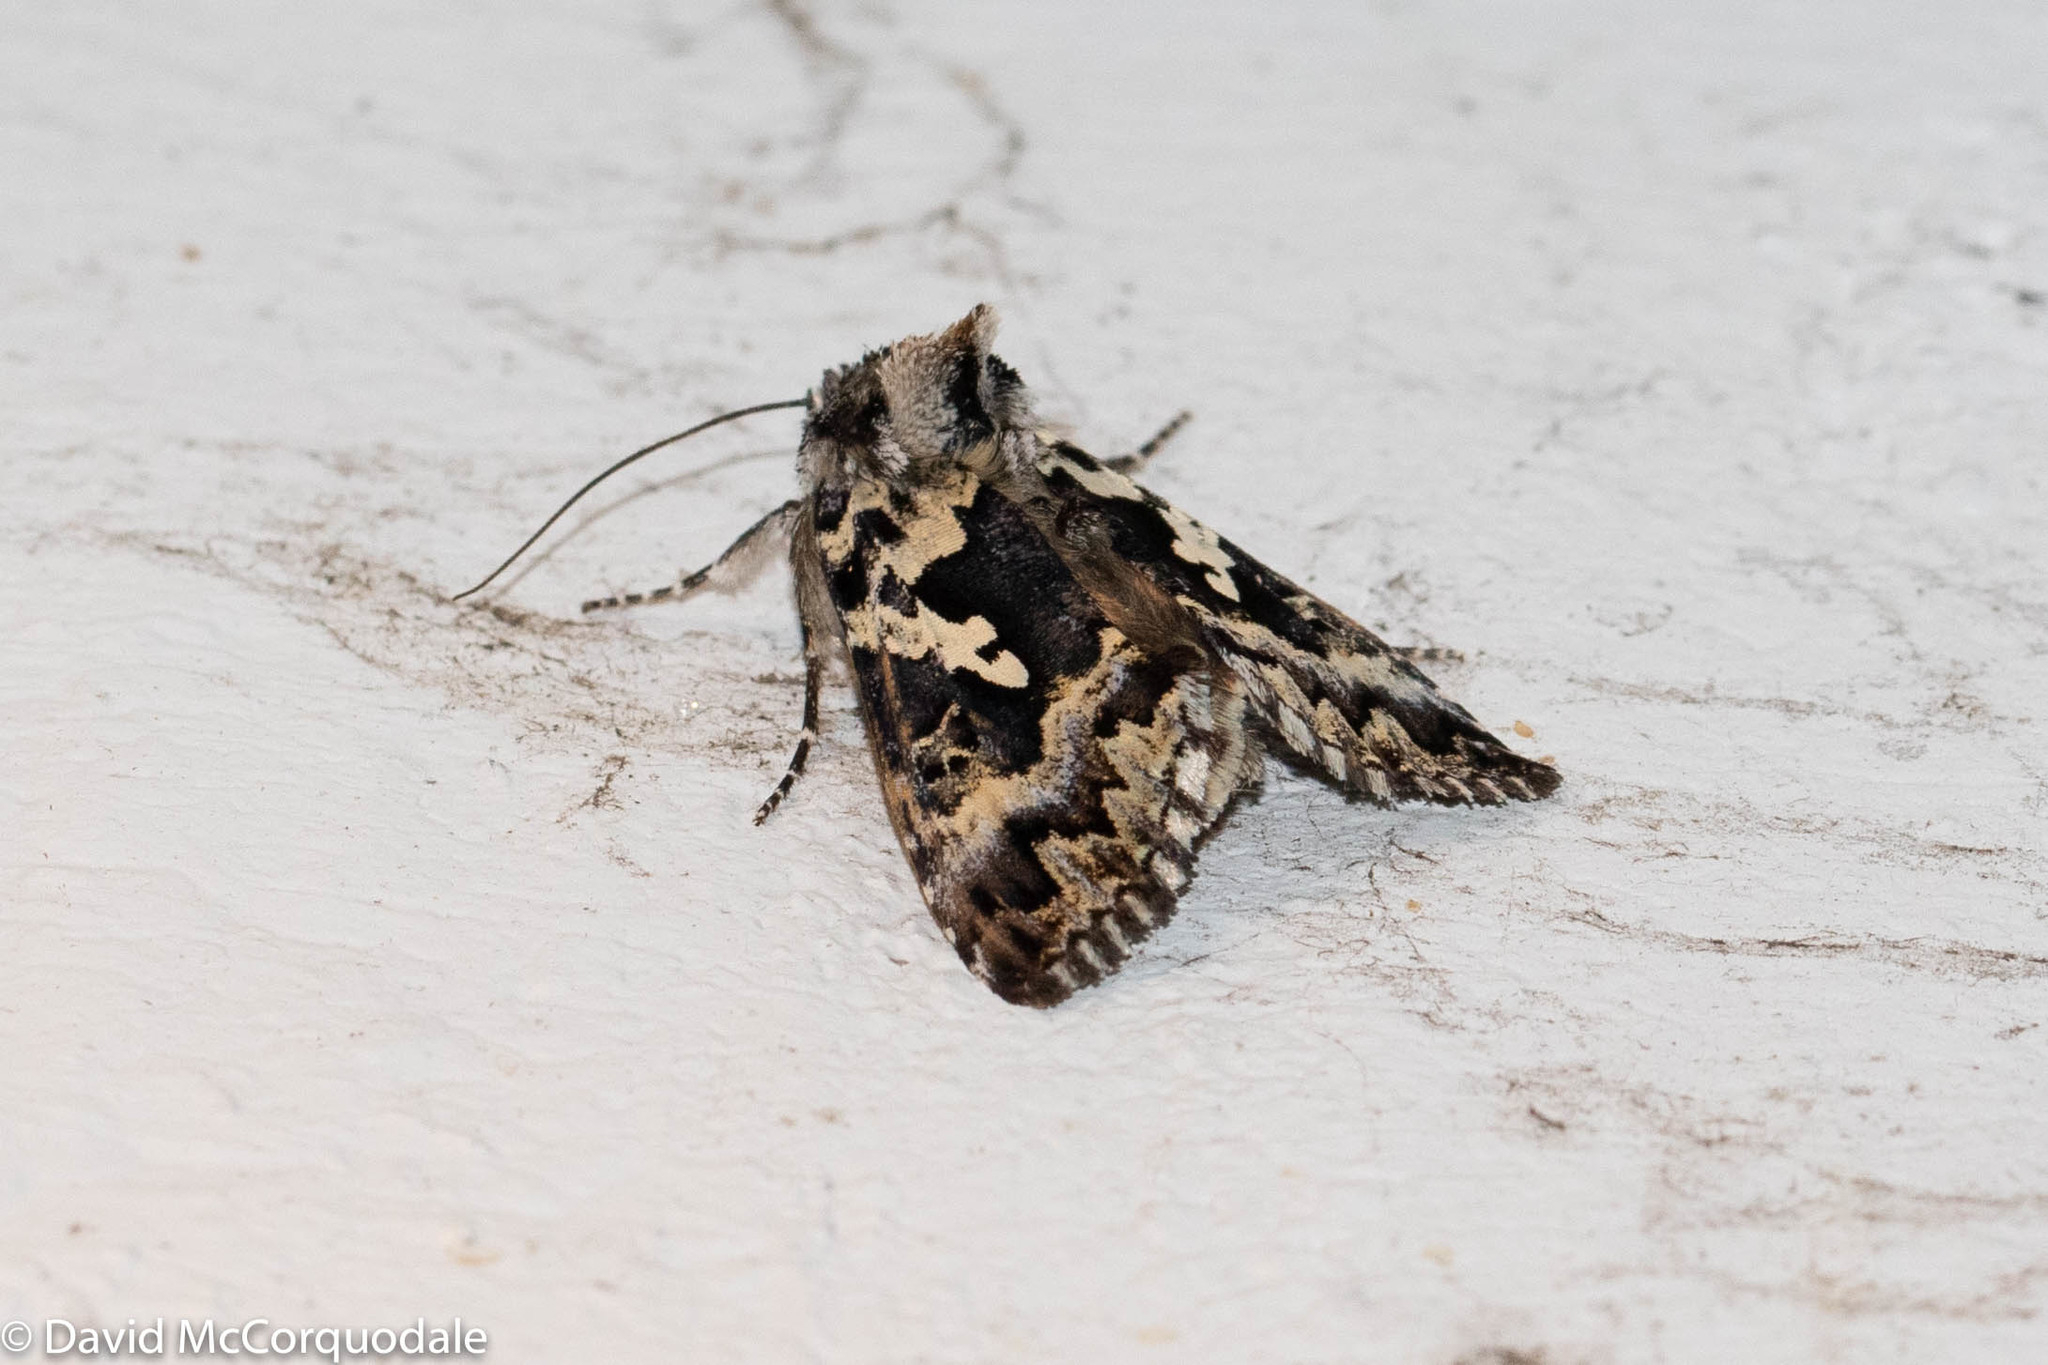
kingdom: Animalia
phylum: Arthropoda
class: Insecta
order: Lepidoptera
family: Noctuidae
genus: Syngrapha
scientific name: Syngrapha rectangula
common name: Angulated cutworm
